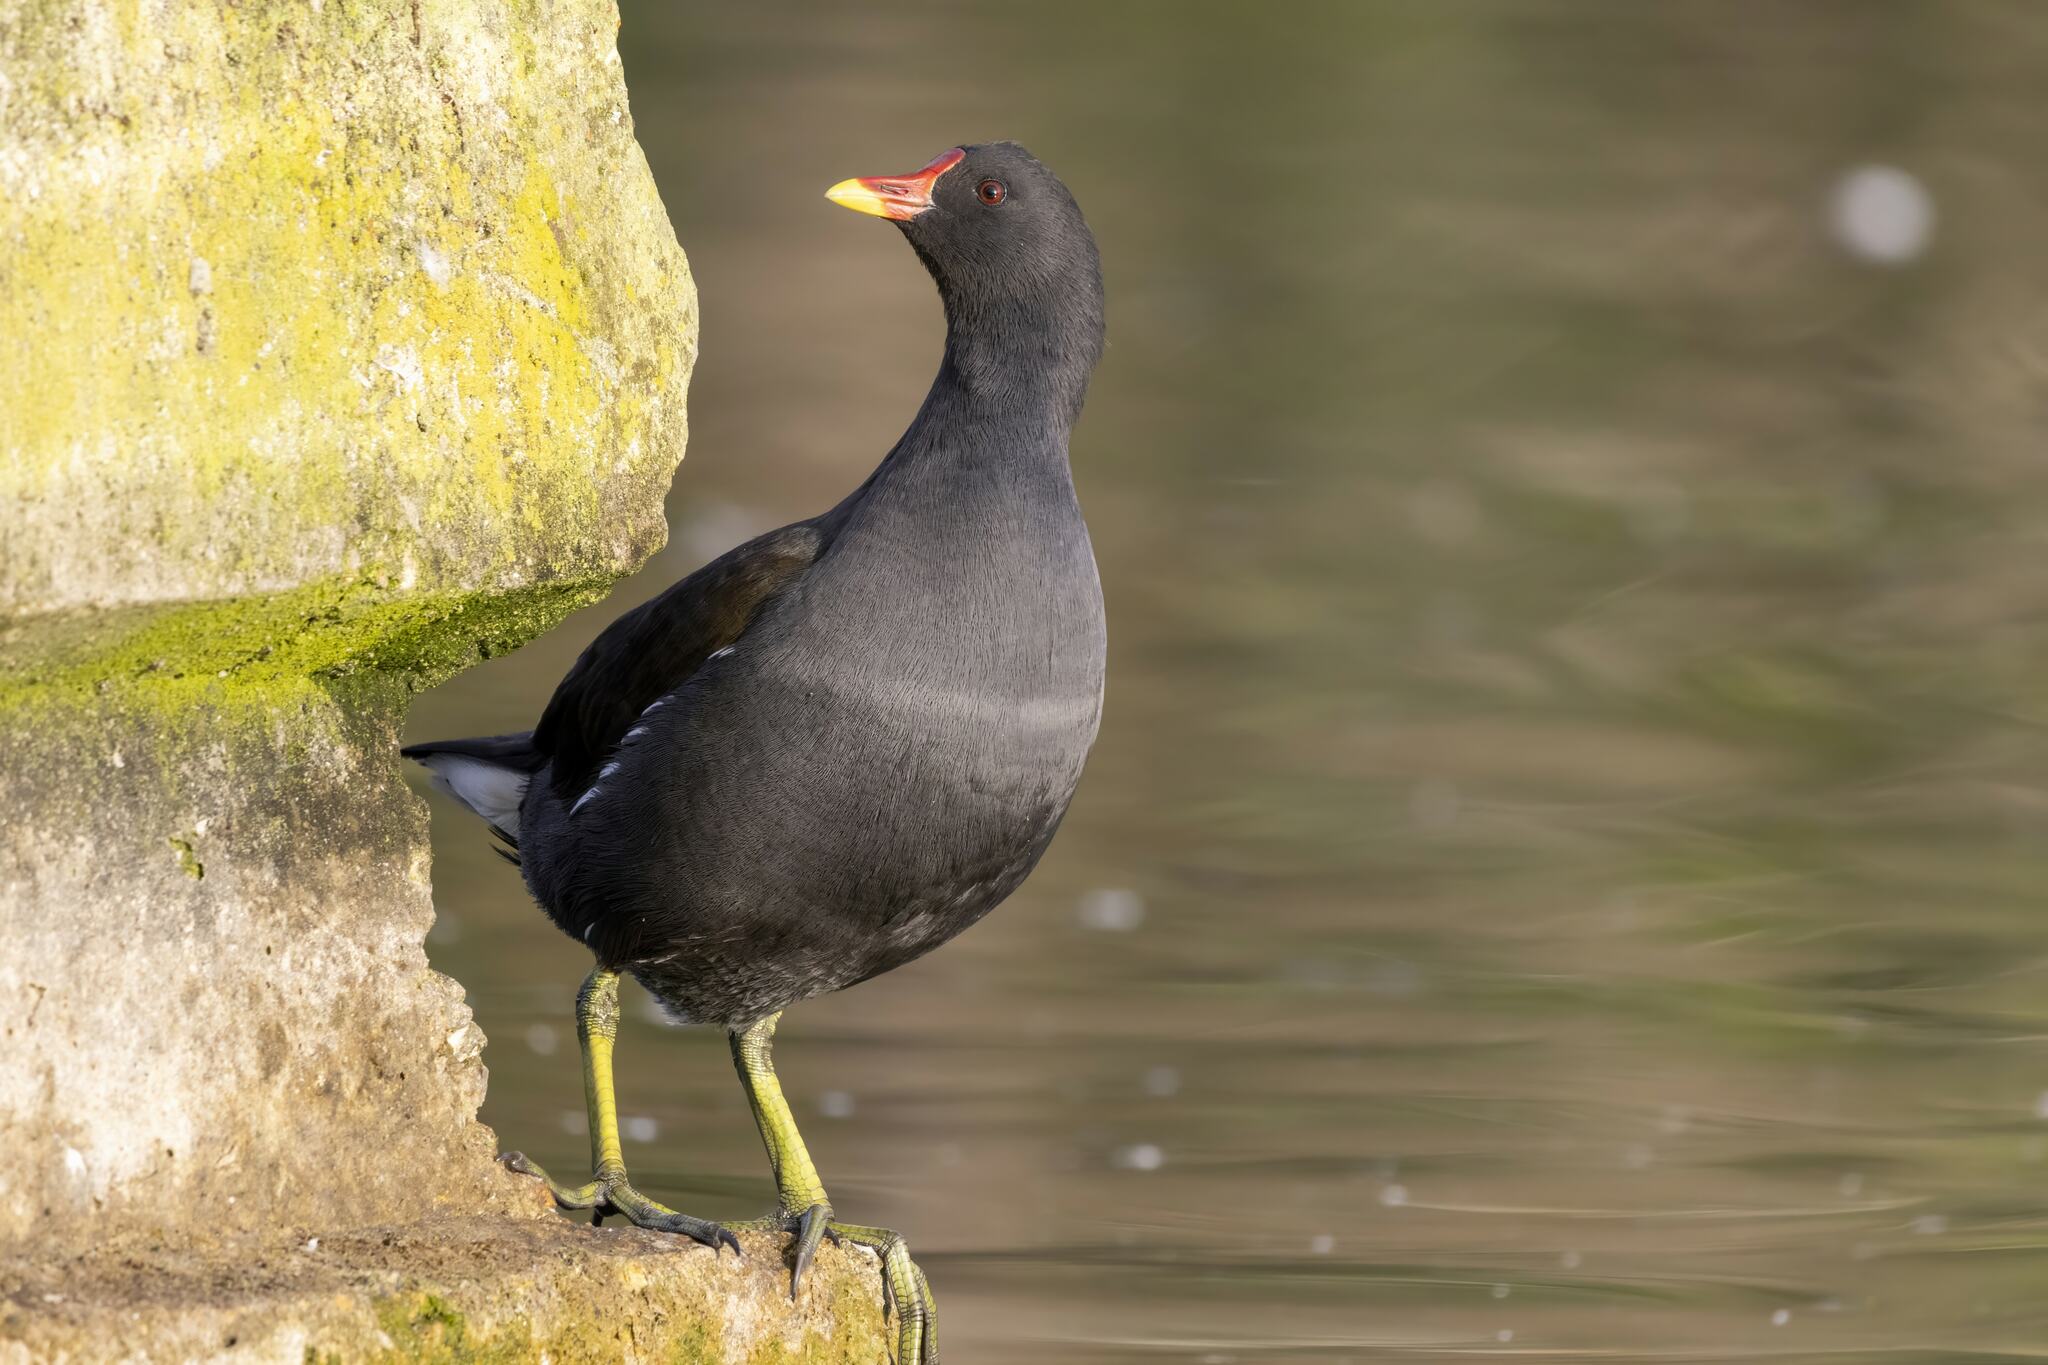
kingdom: Animalia
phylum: Chordata
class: Aves
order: Gruiformes
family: Rallidae
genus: Gallinula
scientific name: Gallinula chloropus
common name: Common moorhen
